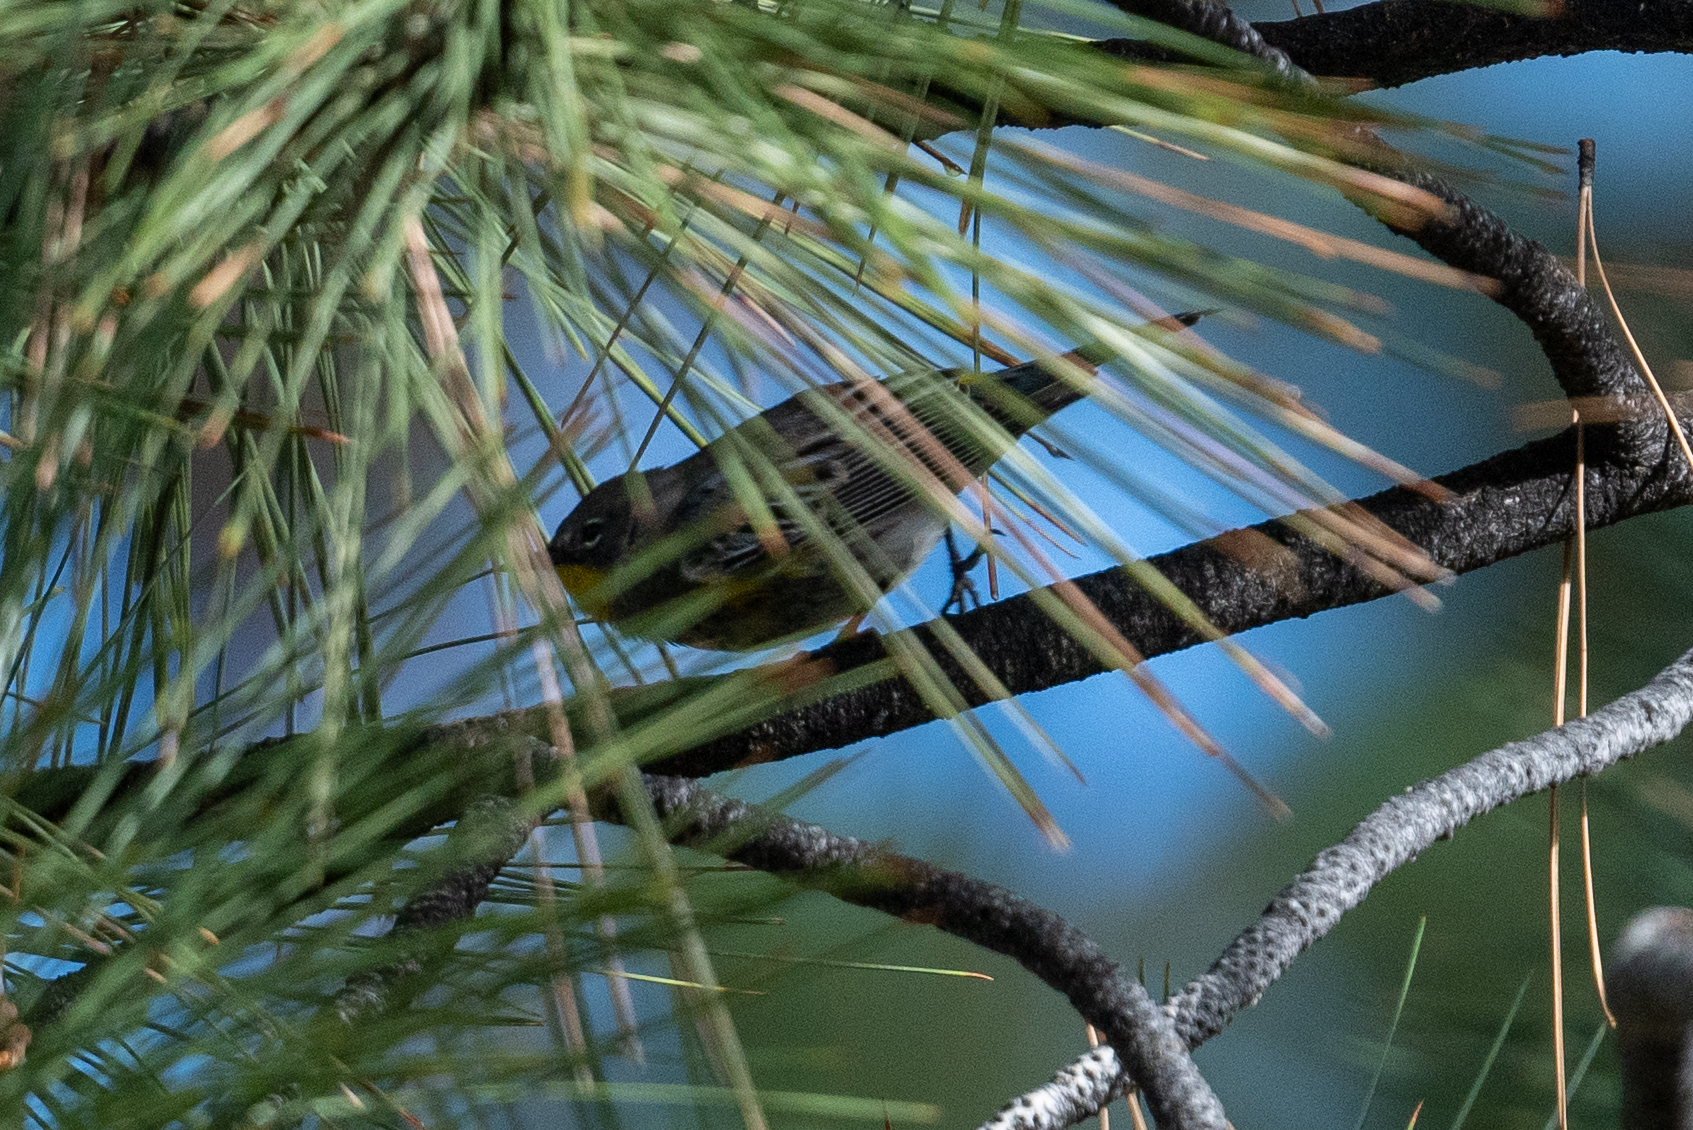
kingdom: Animalia
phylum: Chordata
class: Aves
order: Passeriformes
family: Parulidae
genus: Setophaga
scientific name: Setophaga coronata
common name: Myrtle warbler
